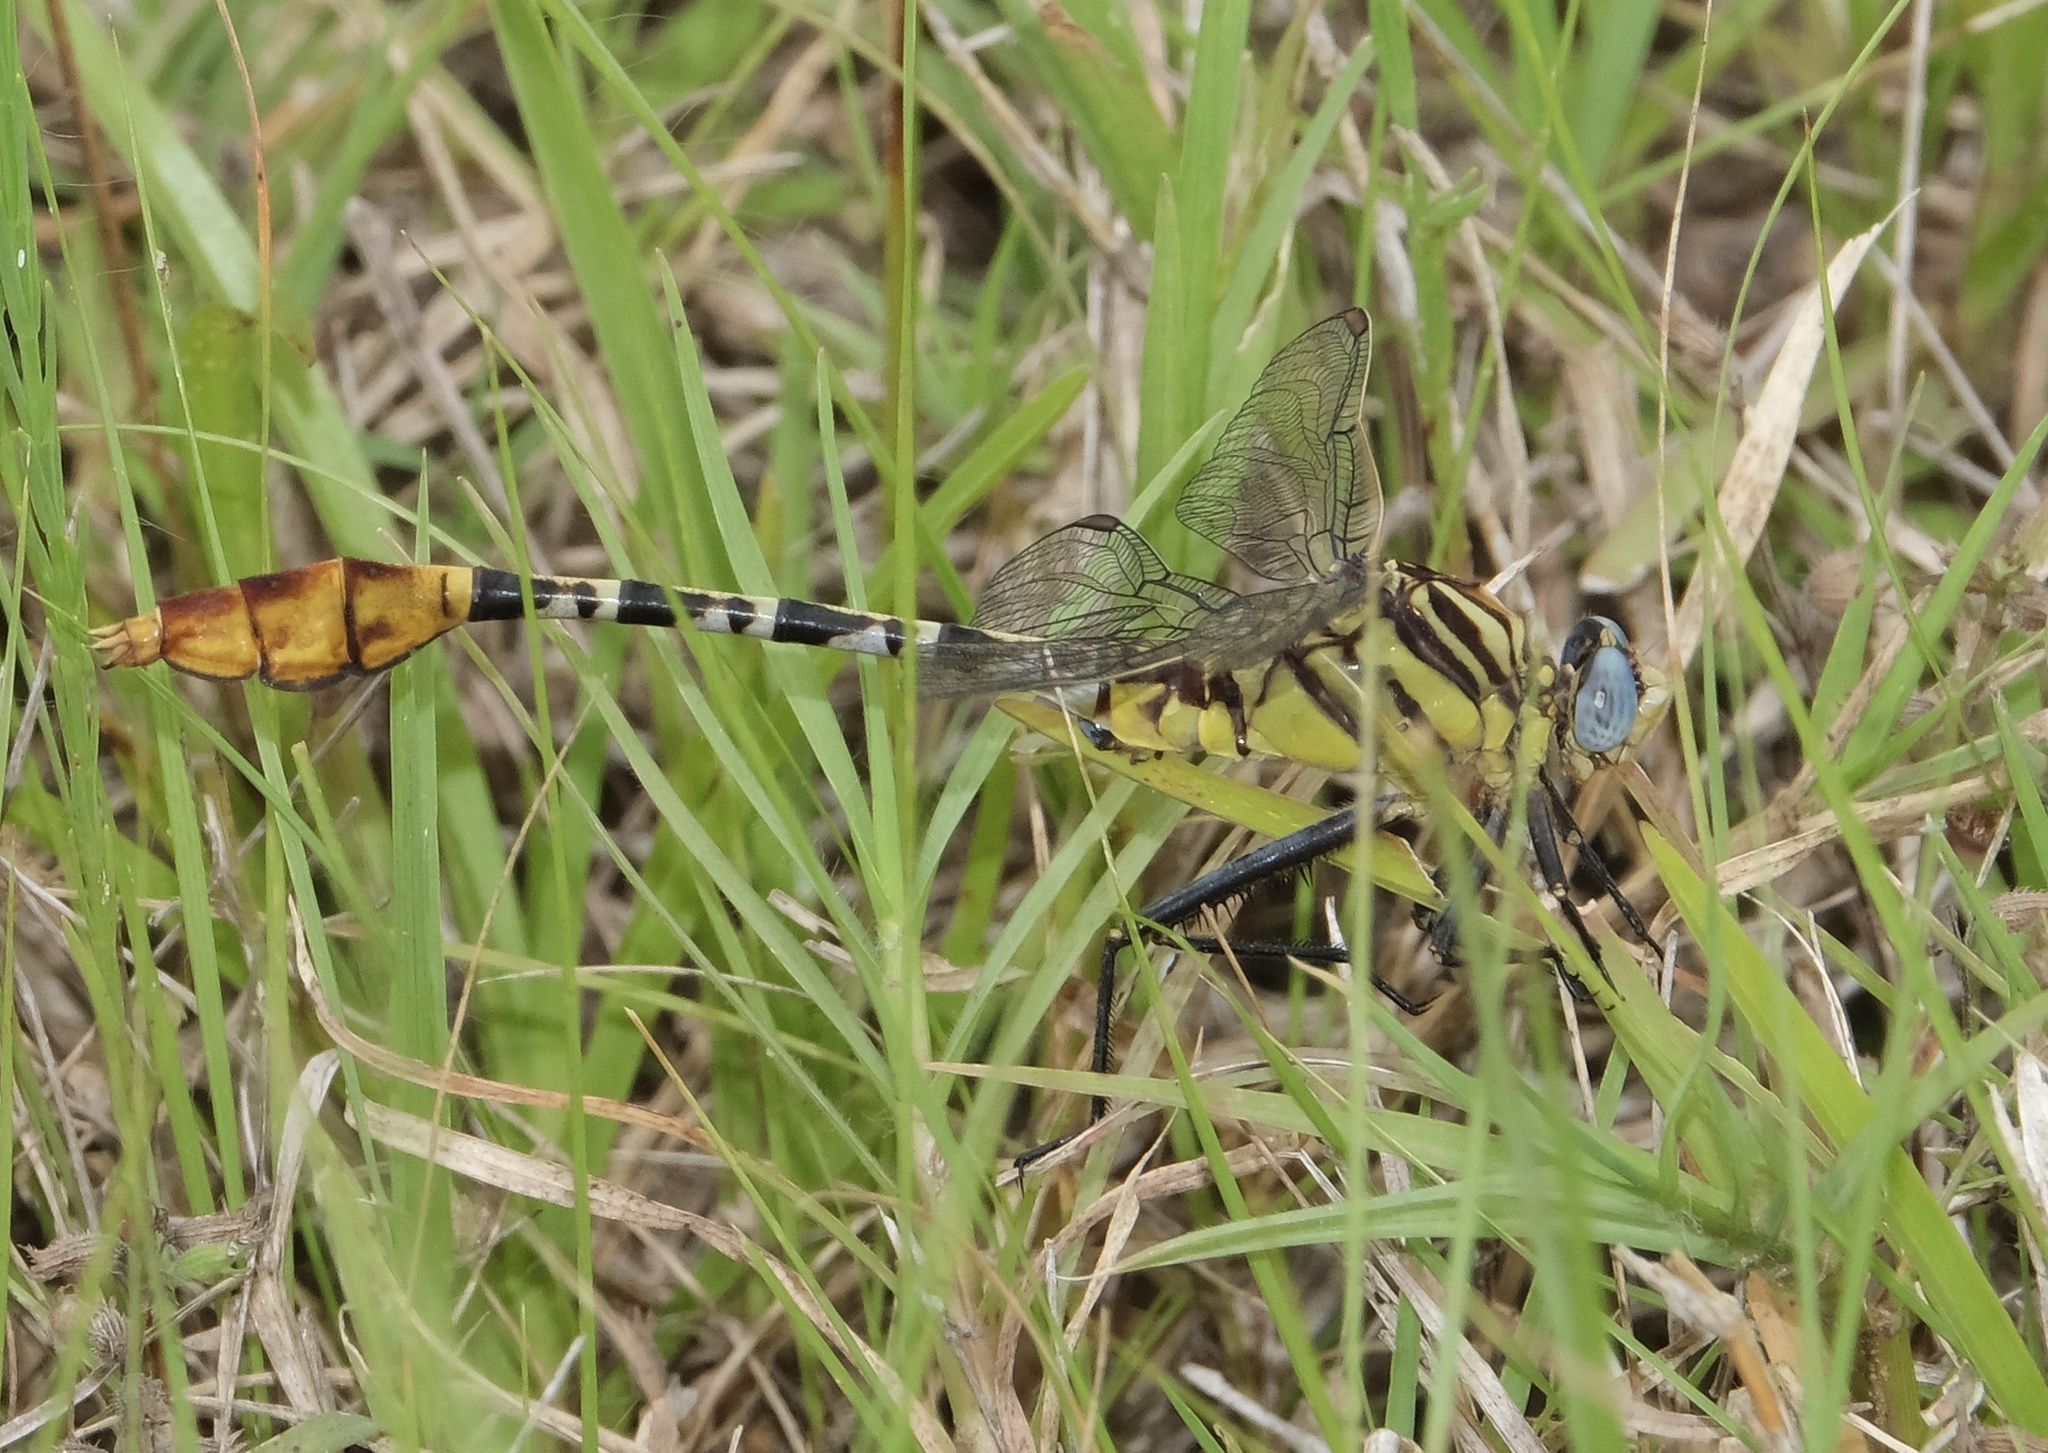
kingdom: Animalia
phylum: Arthropoda
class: Insecta
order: Odonata
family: Gomphidae
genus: Dromogomphus
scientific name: Dromogomphus spoliatus
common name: Flag-tailed spinyleg
